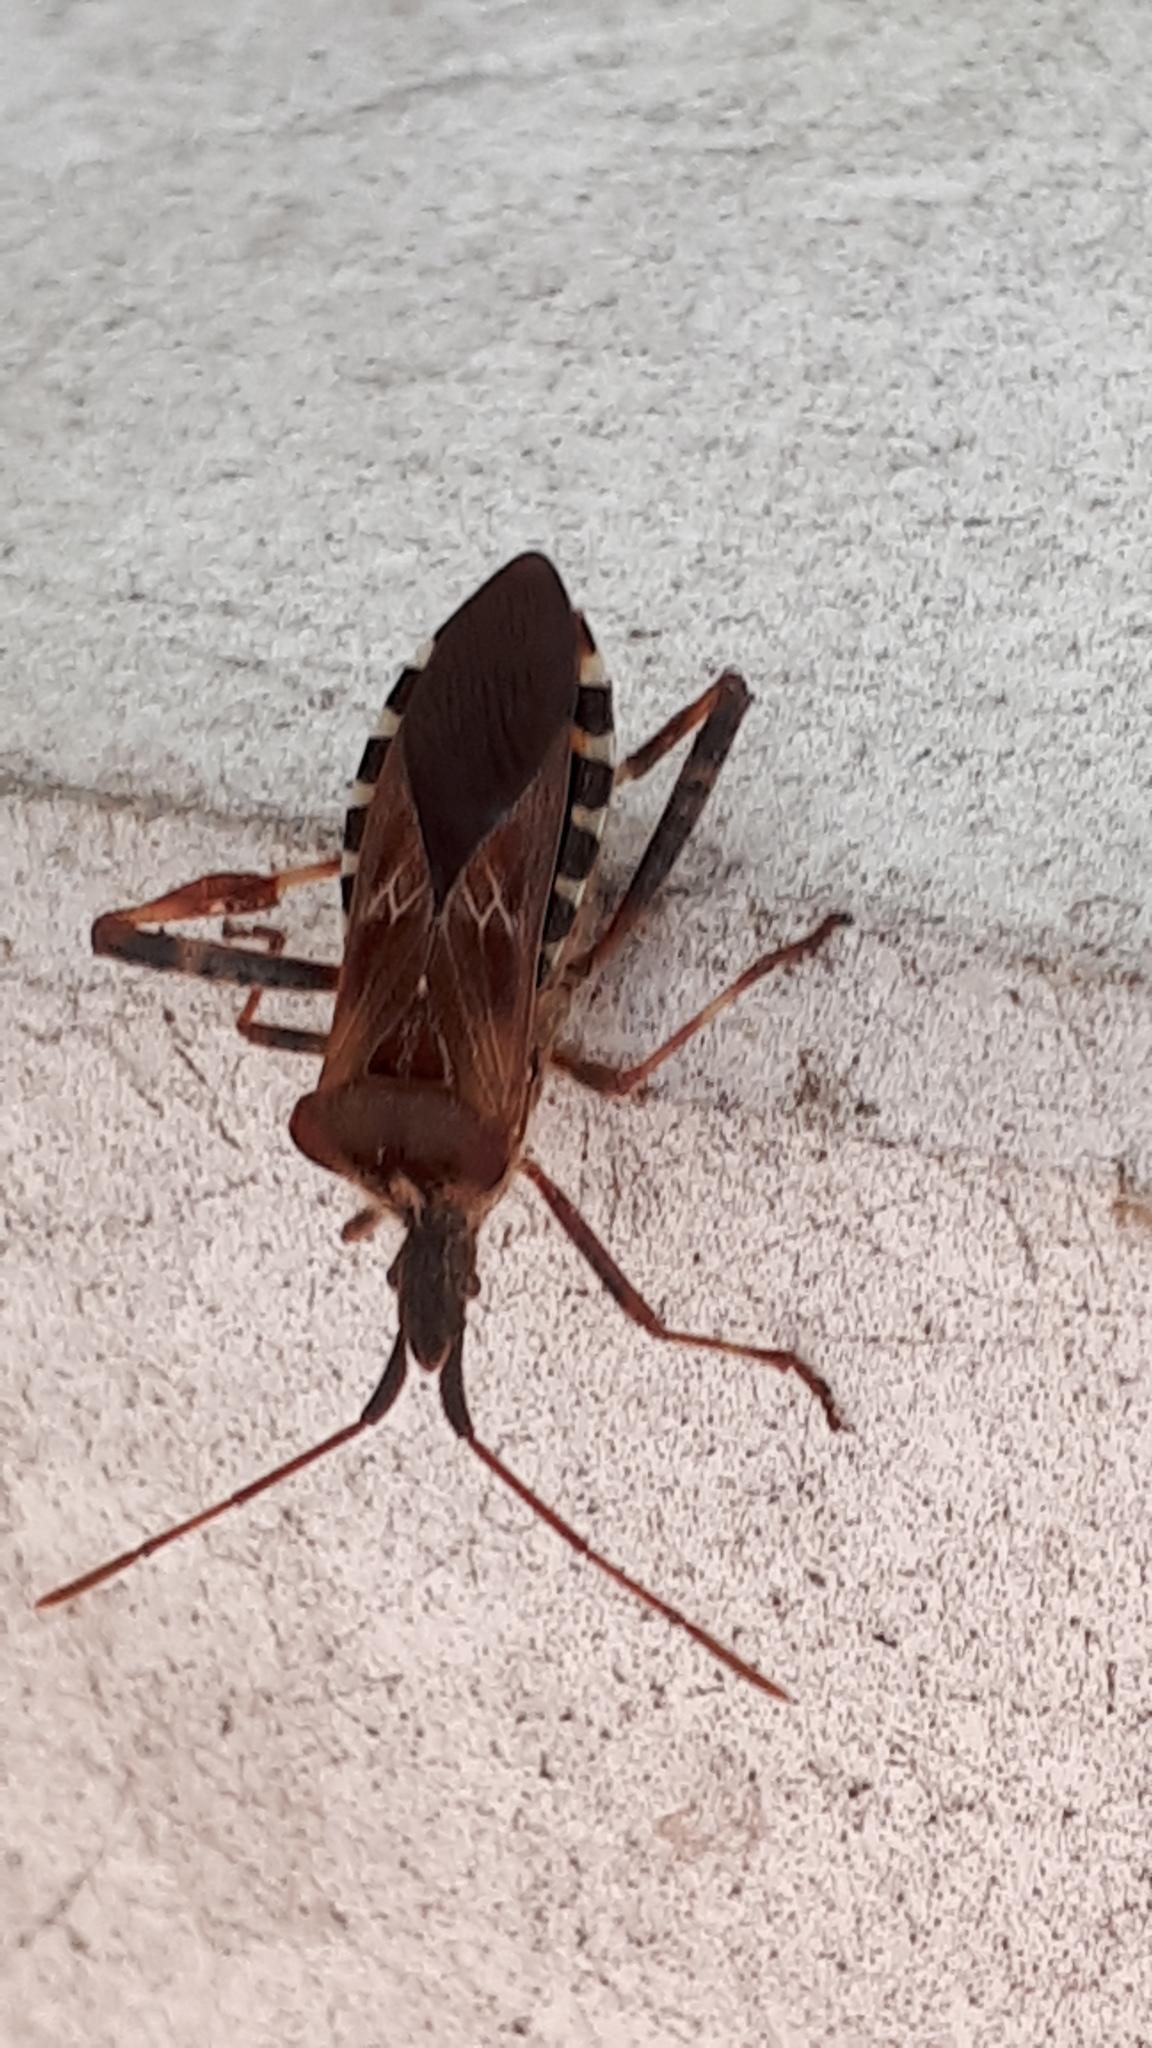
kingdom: Animalia
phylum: Arthropoda
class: Insecta
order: Hemiptera
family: Coreidae
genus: Leptoglossus
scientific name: Leptoglossus occidentalis
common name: Western conifer-seed bug
